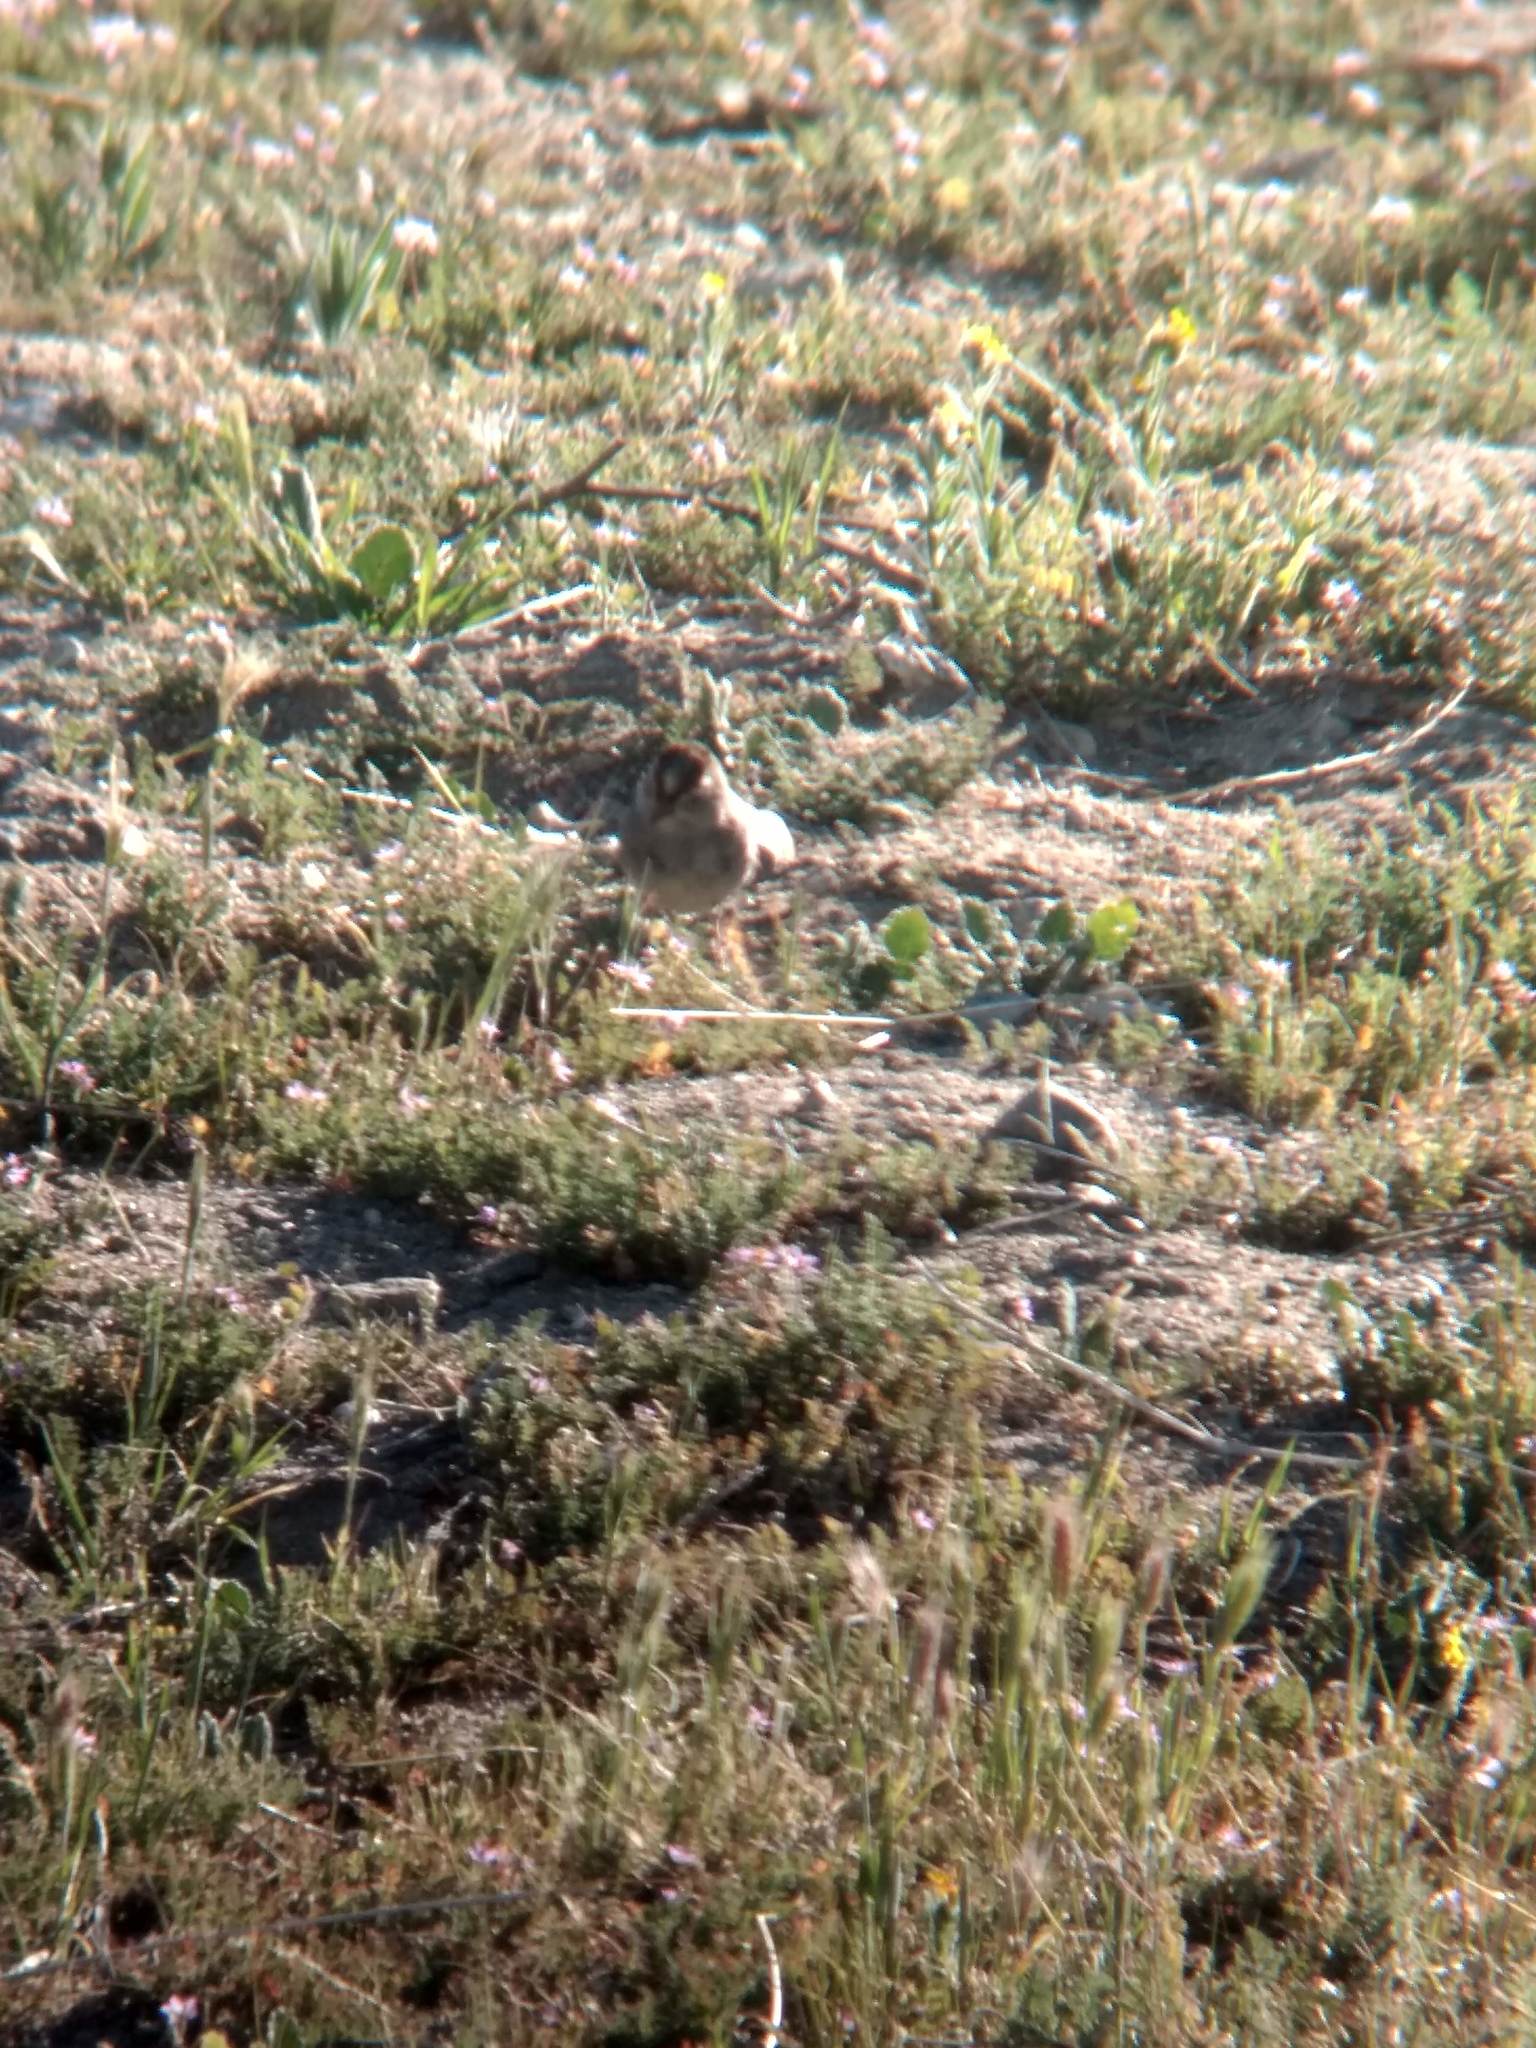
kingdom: Animalia
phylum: Chordata
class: Aves
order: Passeriformes
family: Passerellidae
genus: Zonotrichia
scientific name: Zonotrichia leucophrys
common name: White-crowned sparrow
